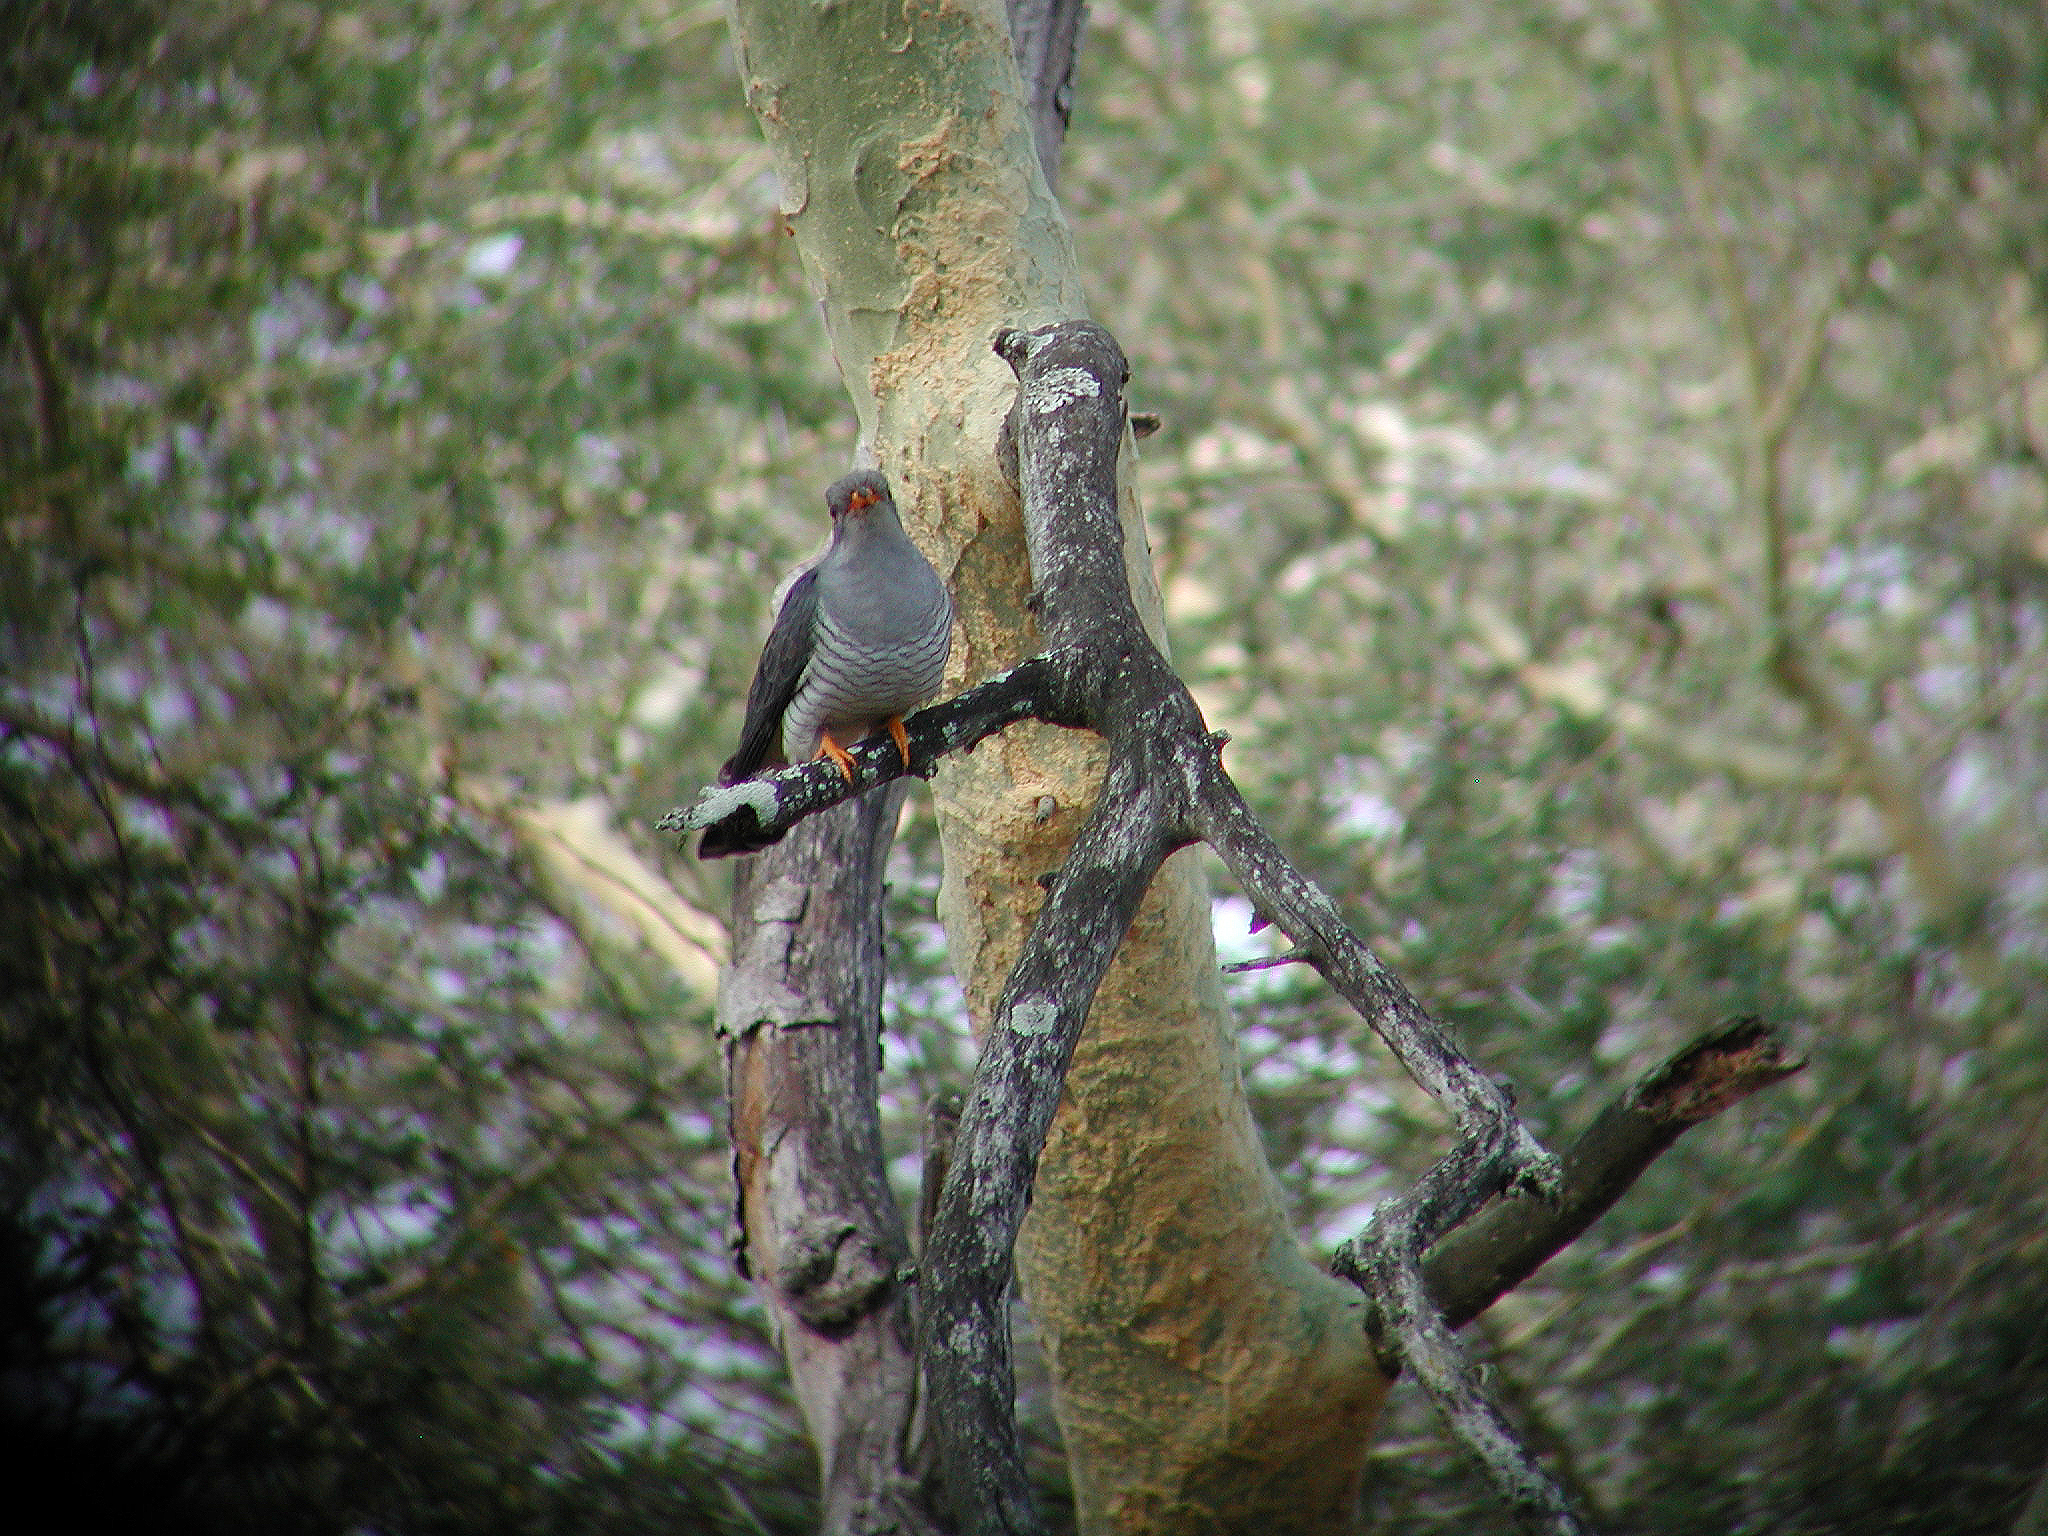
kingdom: Animalia
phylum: Chordata
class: Aves
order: Cuculiformes
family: Cuculidae
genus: Cuculus
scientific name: Cuculus gularis
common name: African cuckoo
